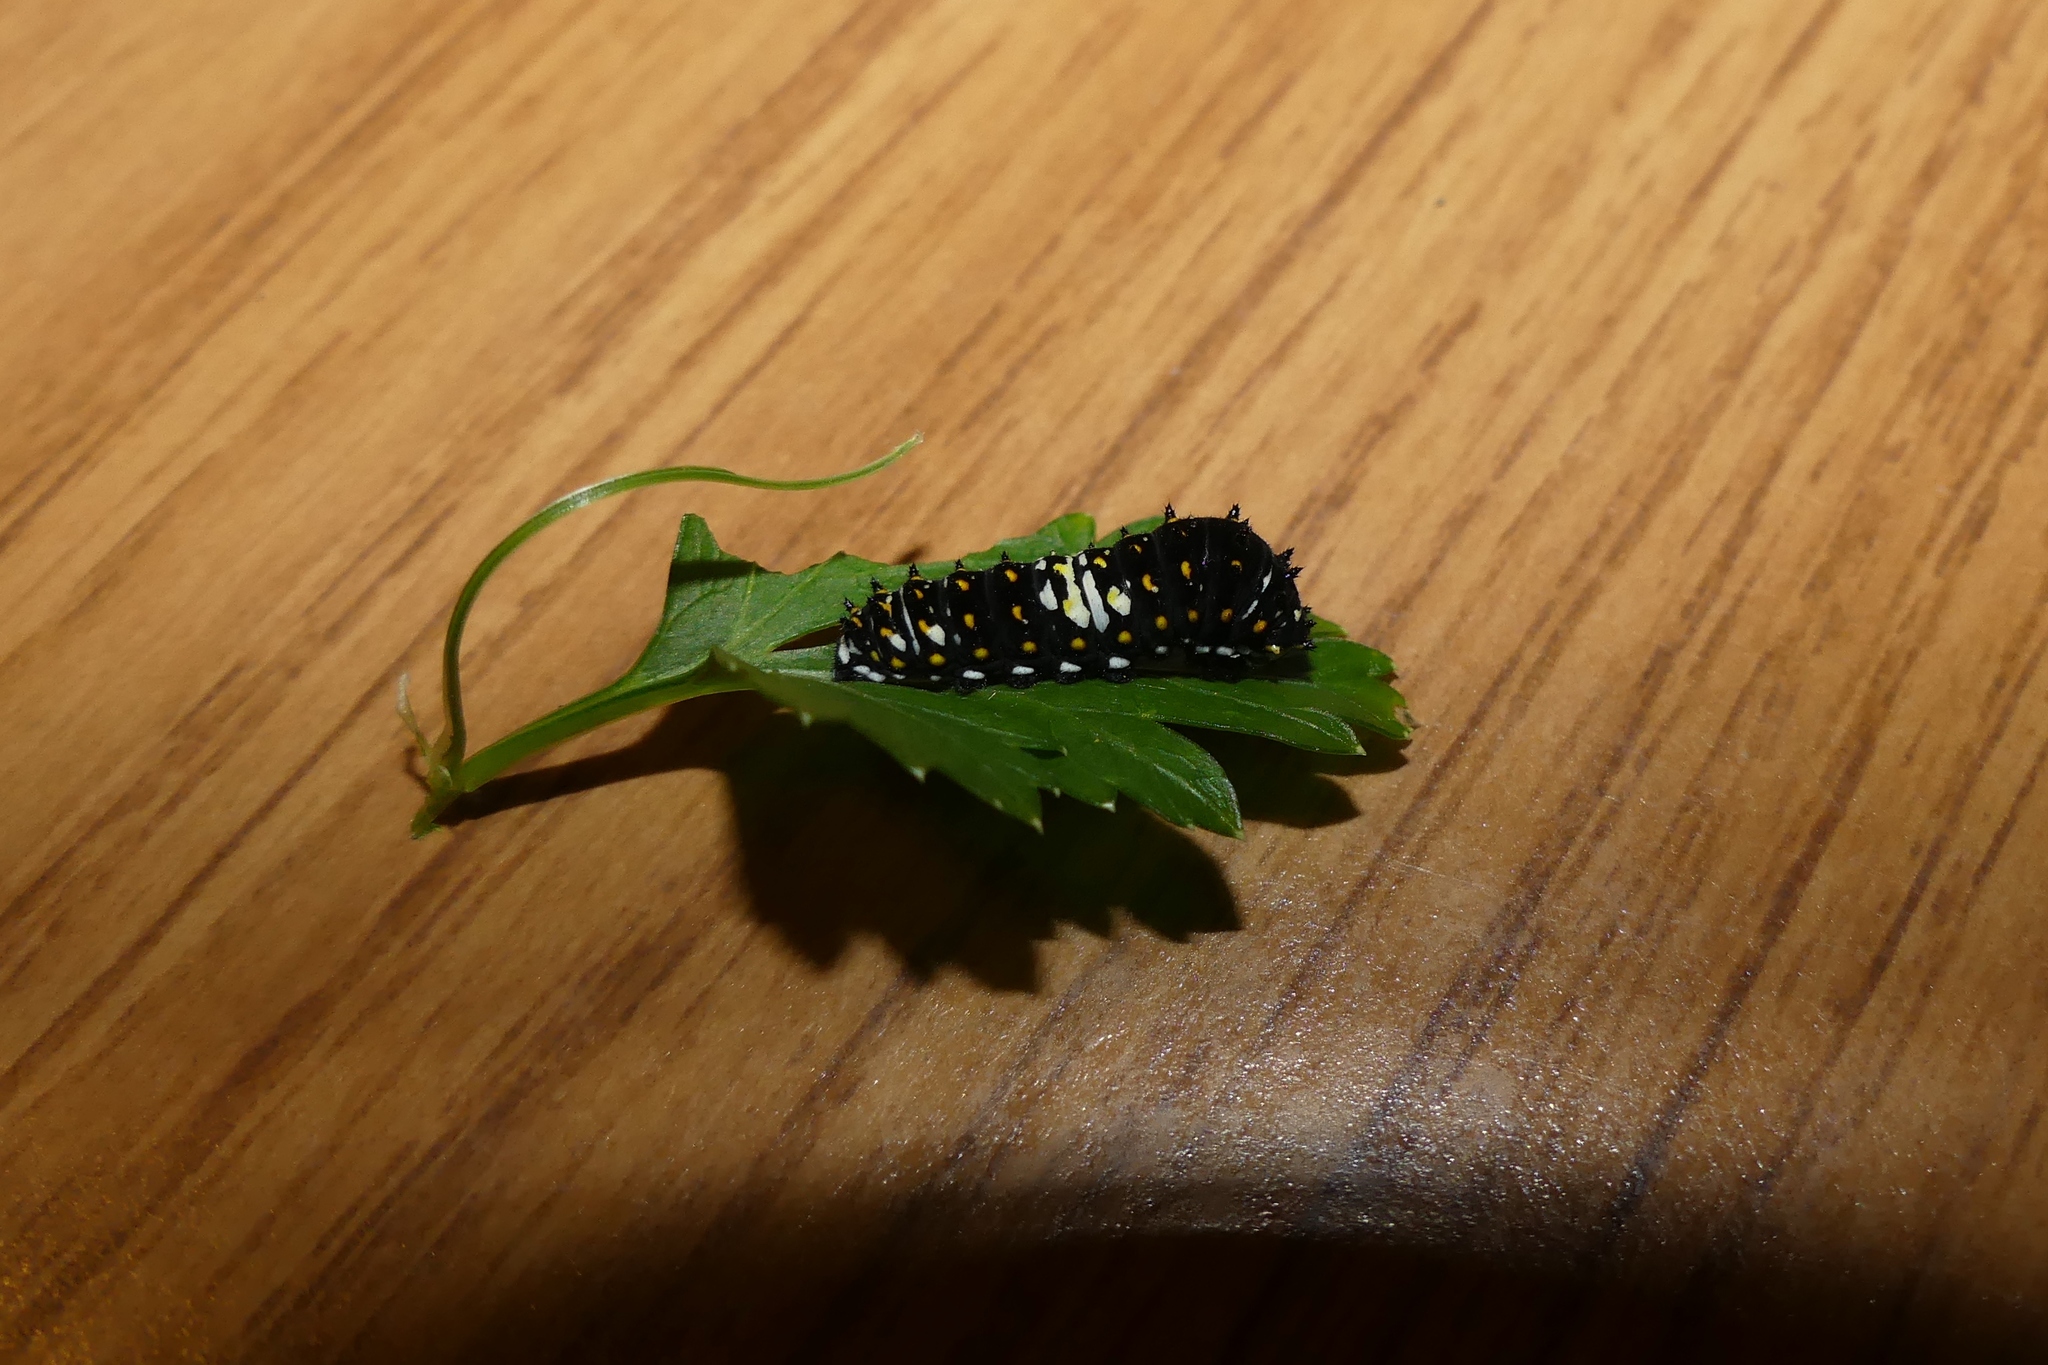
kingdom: Animalia
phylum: Arthropoda
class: Insecta
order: Lepidoptera
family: Papilionidae
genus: Papilio
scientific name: Papilio polyxenes
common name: Black swallowtail
